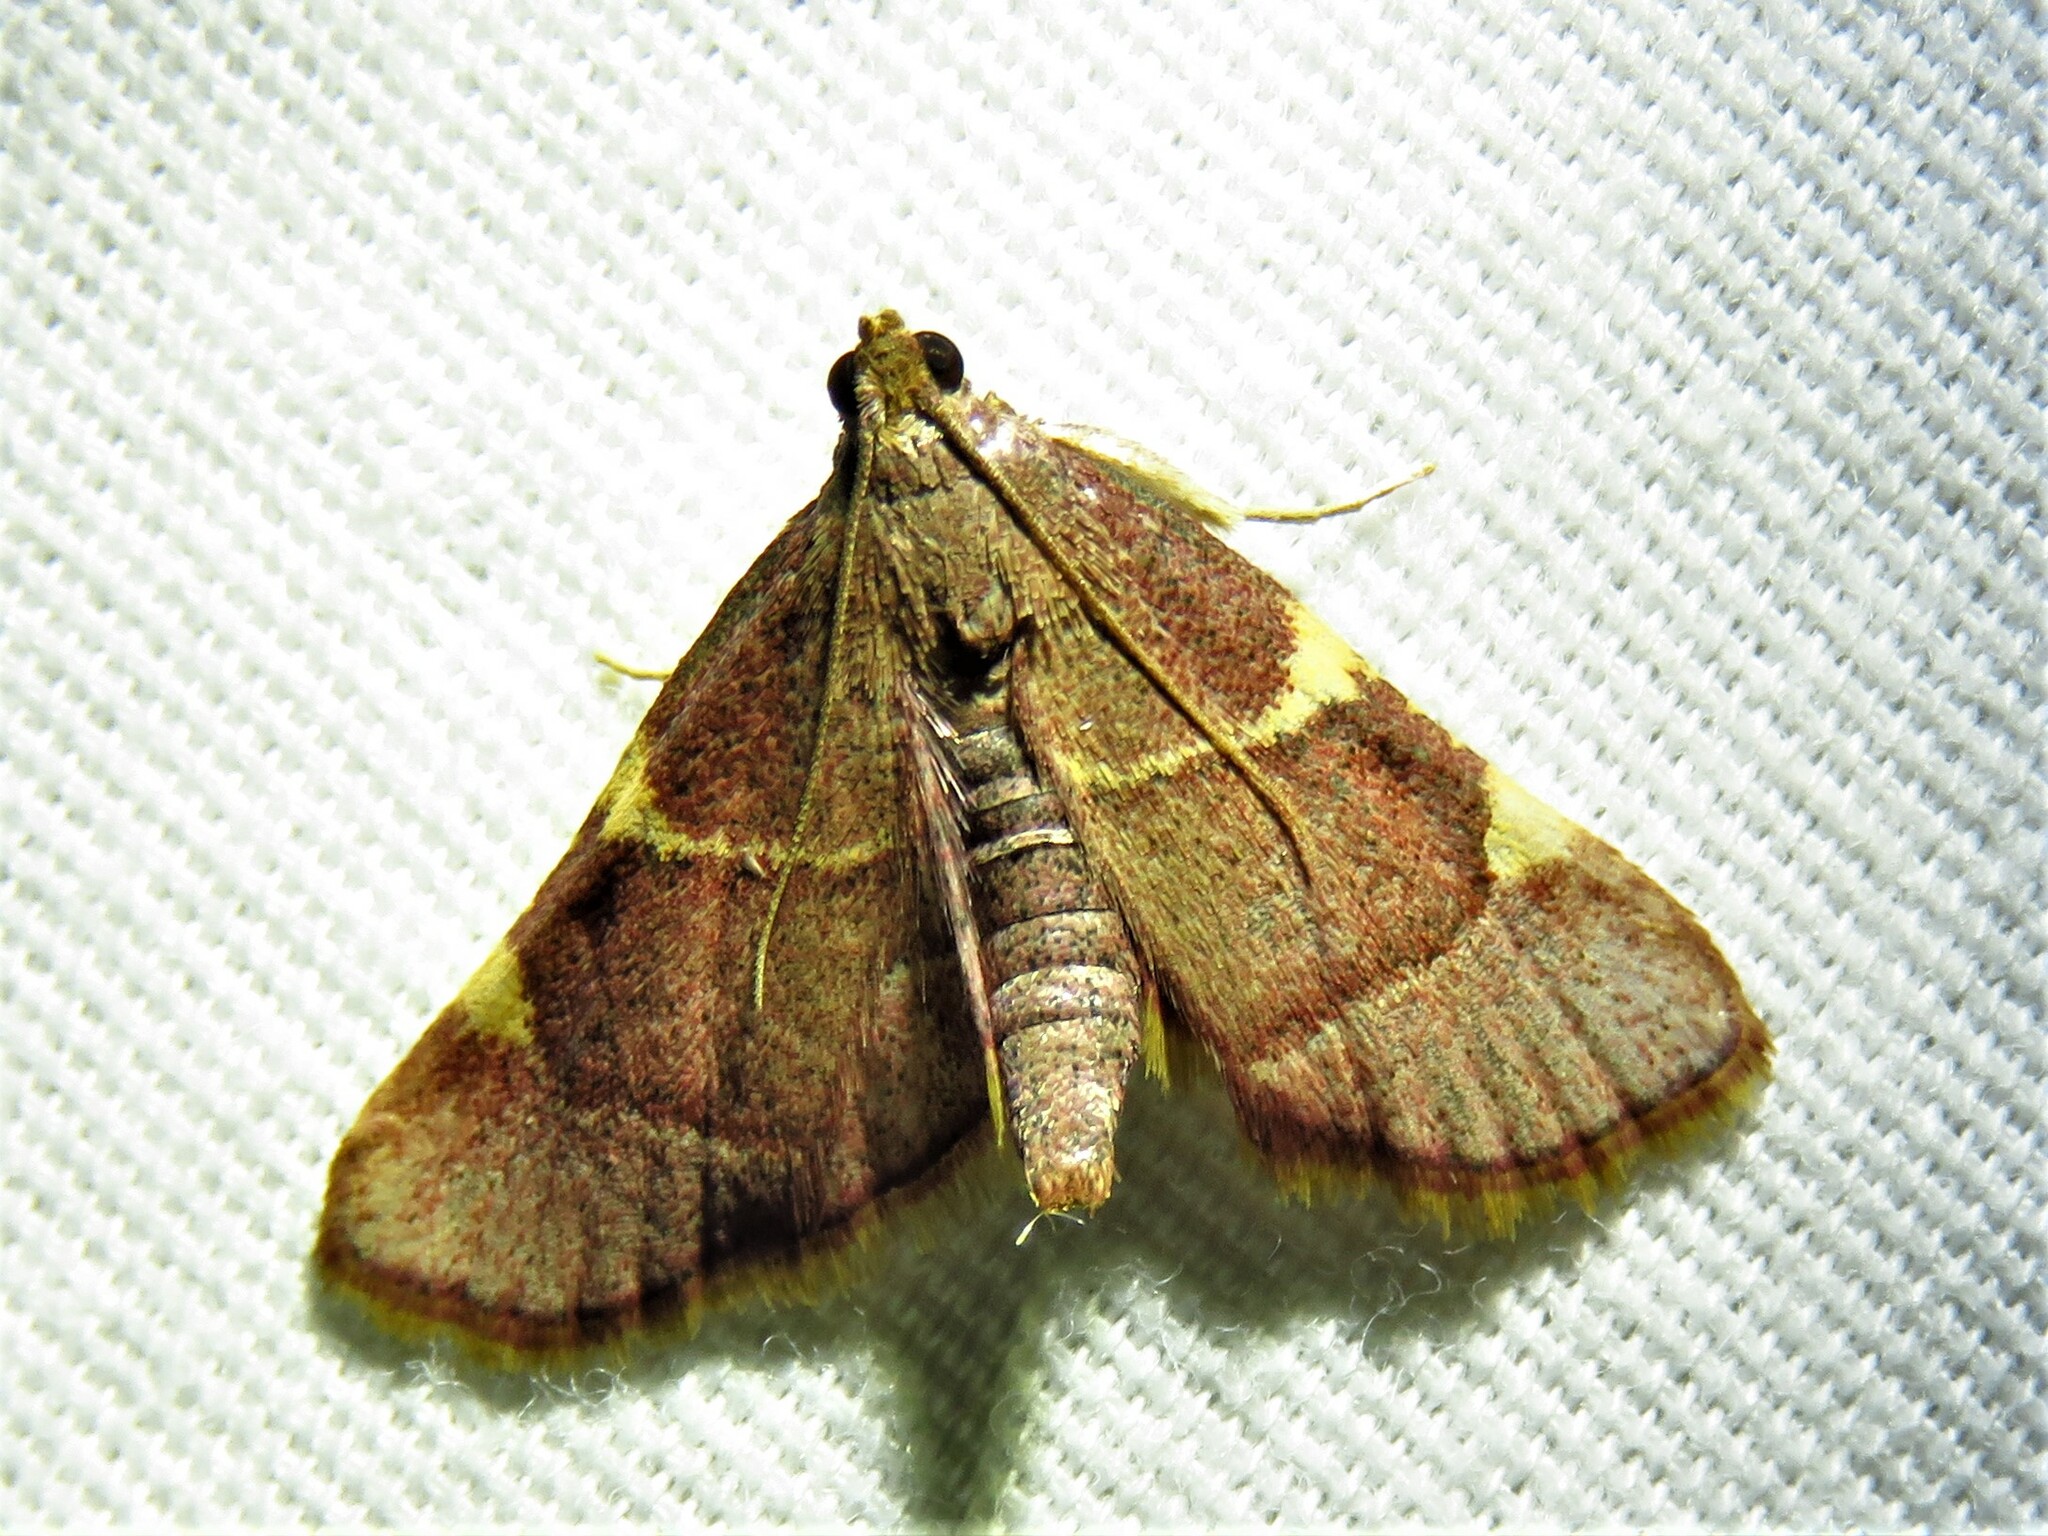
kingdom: Animalia
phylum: Arthropoda
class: Insecta
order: Lepidoptera
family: Pyralidae
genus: Hypsopygia
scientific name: Hypsopygia olinalis
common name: Yellow-fringed dolichomia moth
